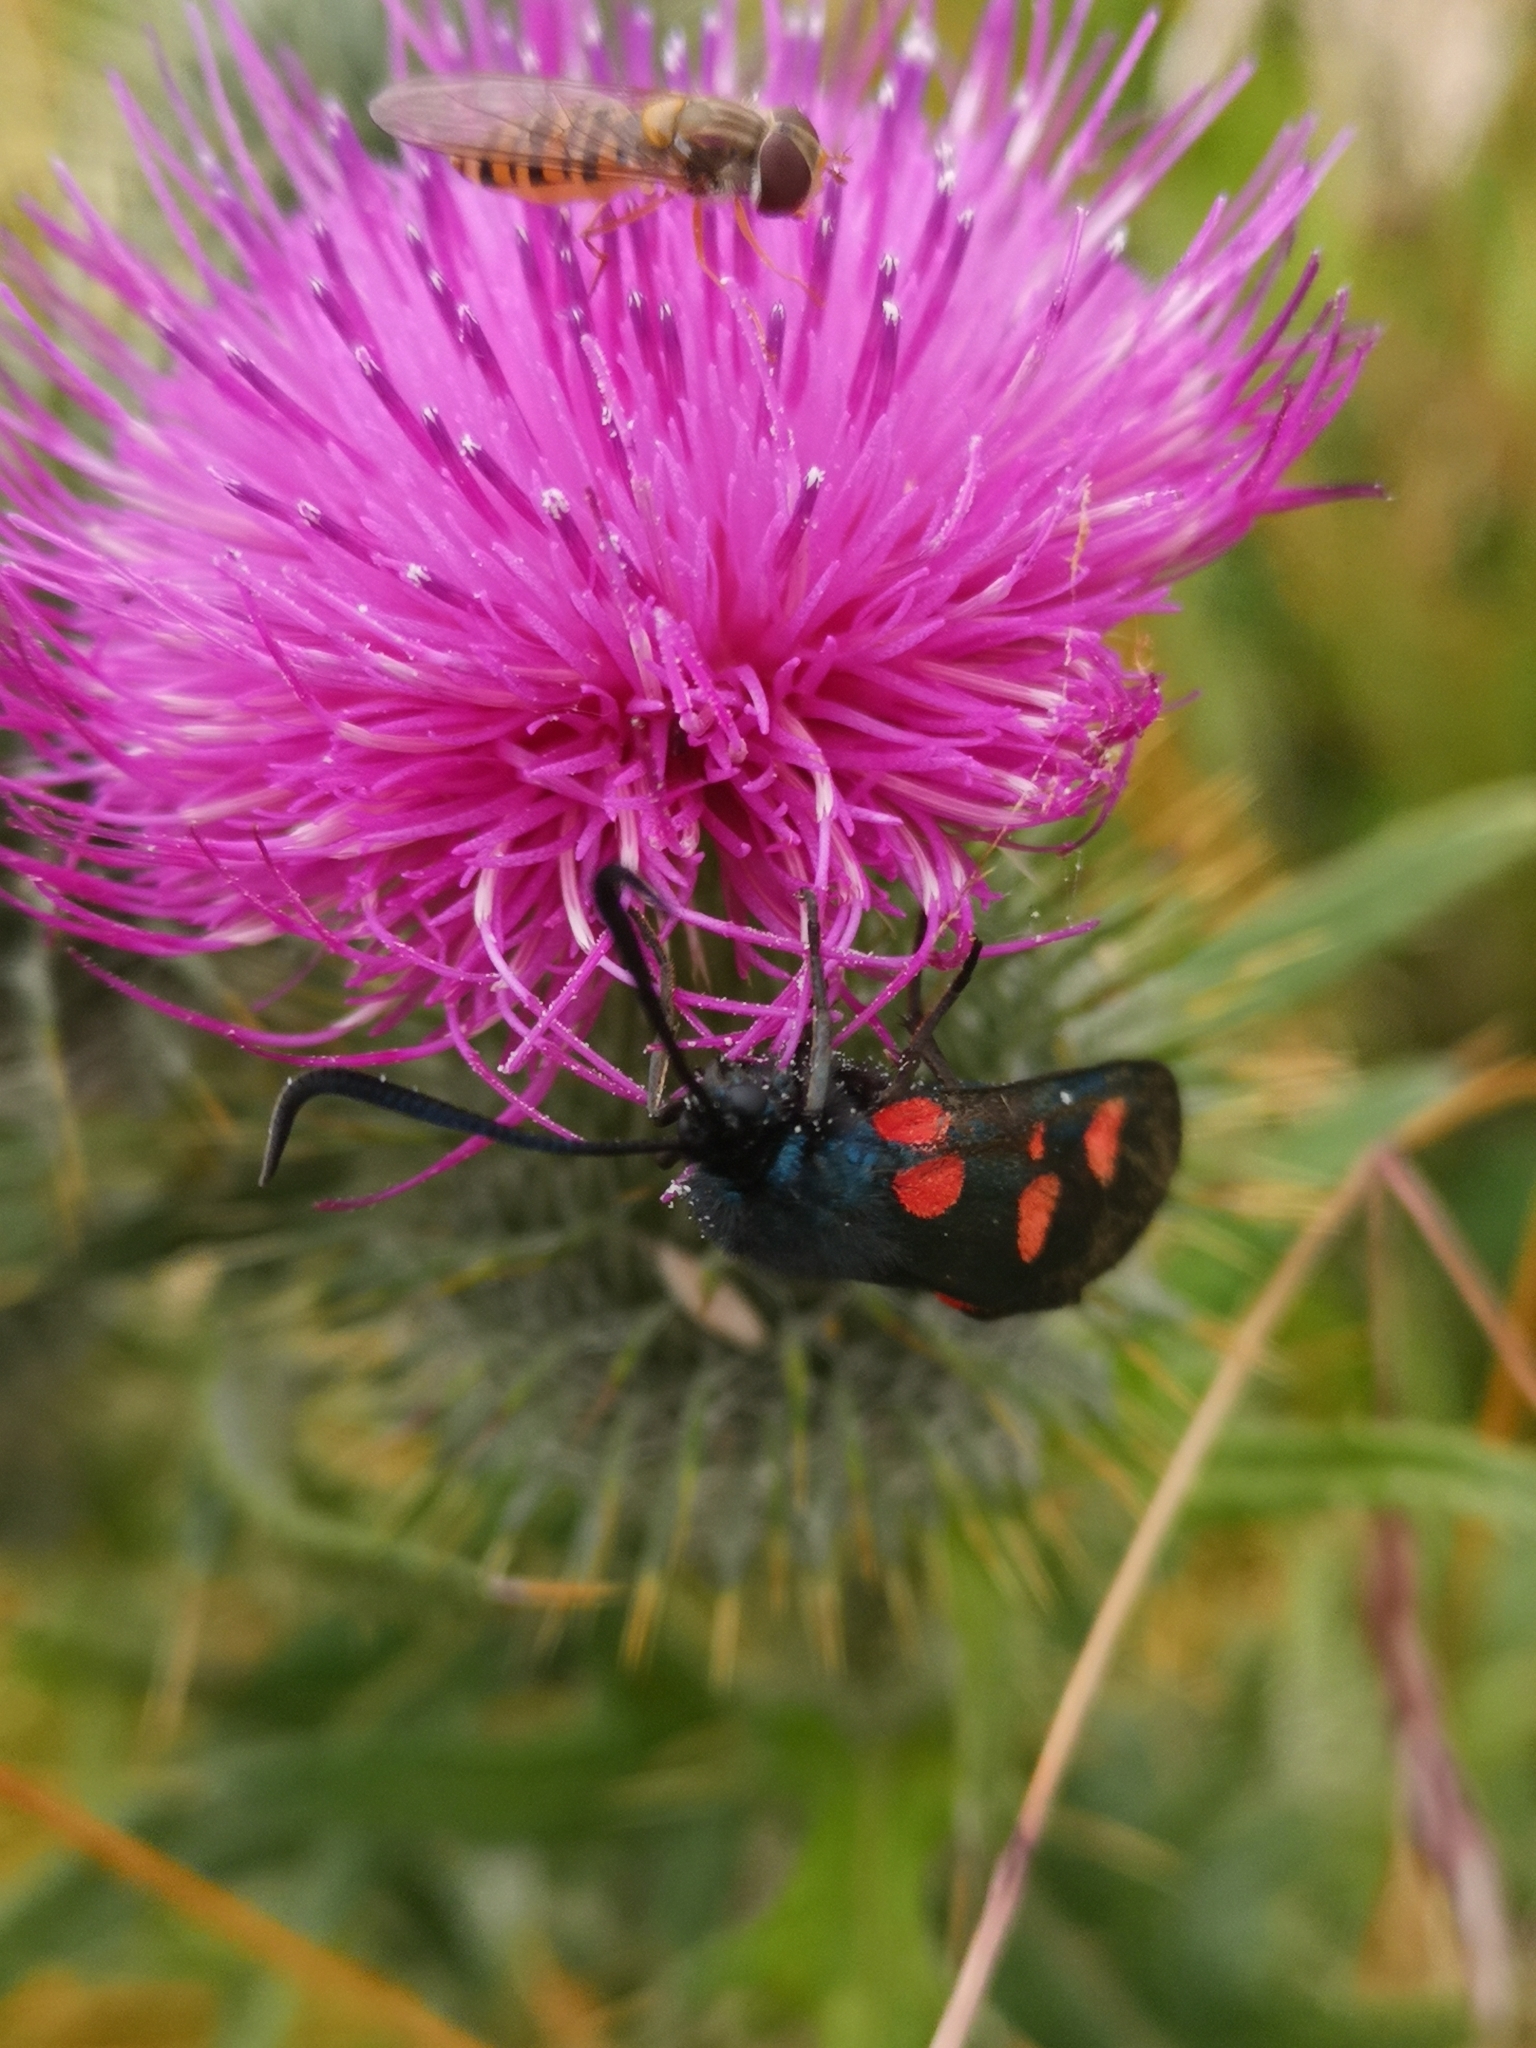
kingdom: Animalia
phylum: Arthropoda
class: Insecta
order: Lepidoptera
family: Zygaenidae
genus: Zygaena
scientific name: Zygaena lonicerae
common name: Narrow-bordered five-spot burnet
